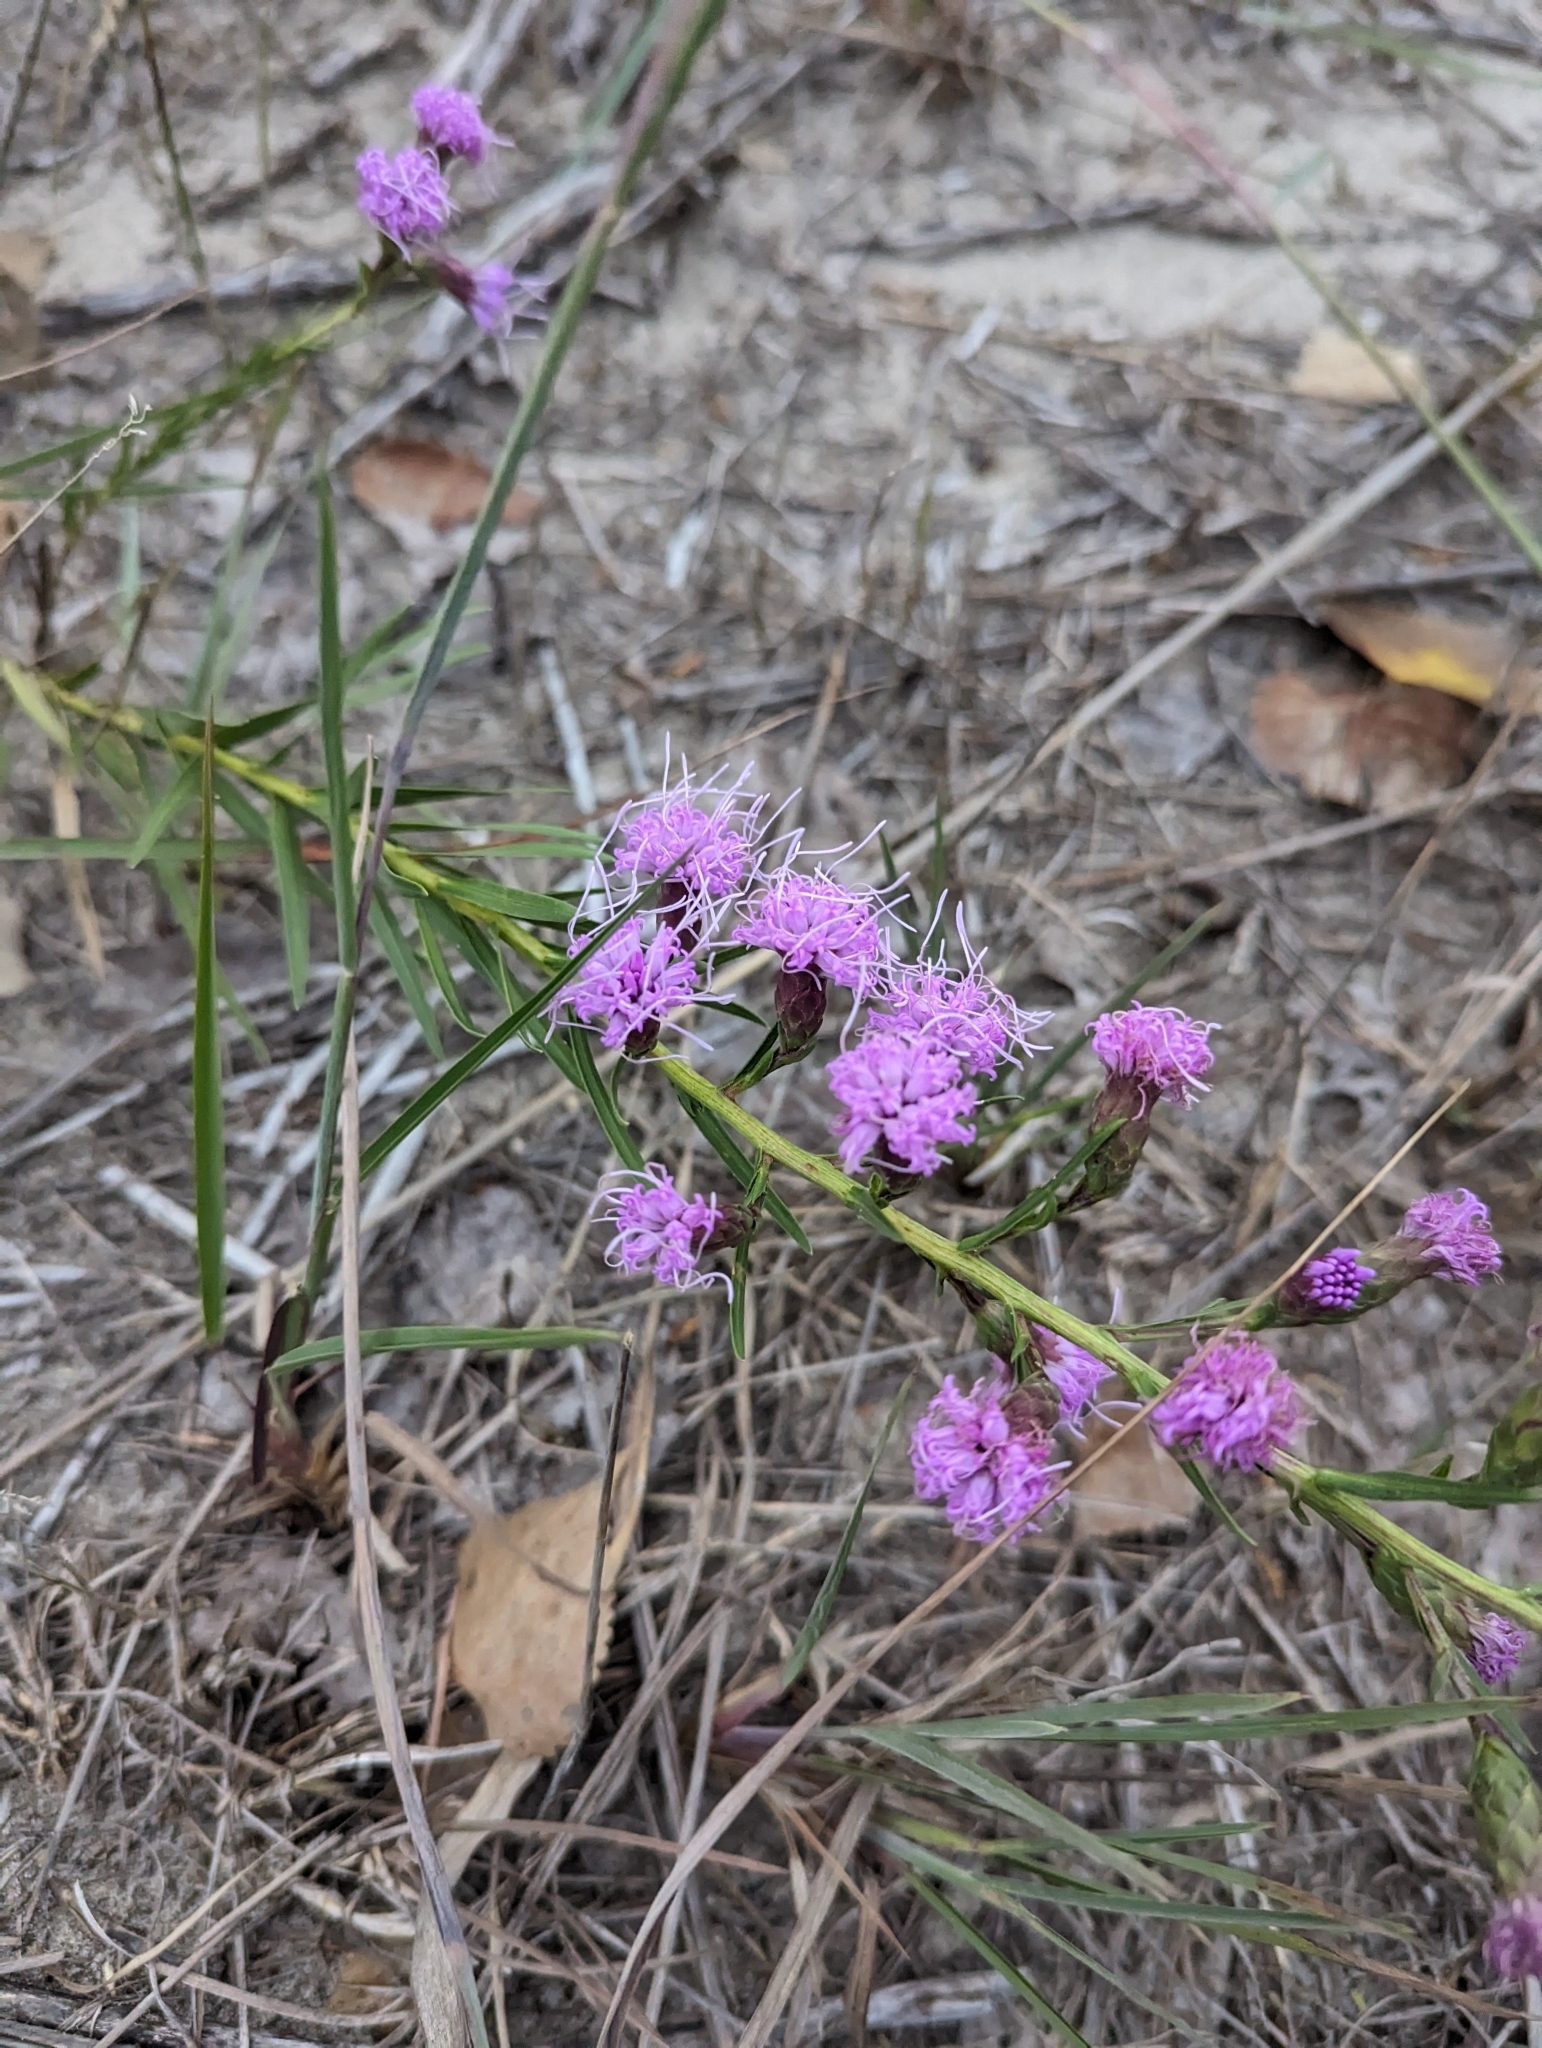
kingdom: Plantae
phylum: Tracheophyta
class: Magnoliopsida
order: Asterales
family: Asteraceae
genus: Liatris
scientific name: Liatris cylindracea
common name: Few-head blazingstar
